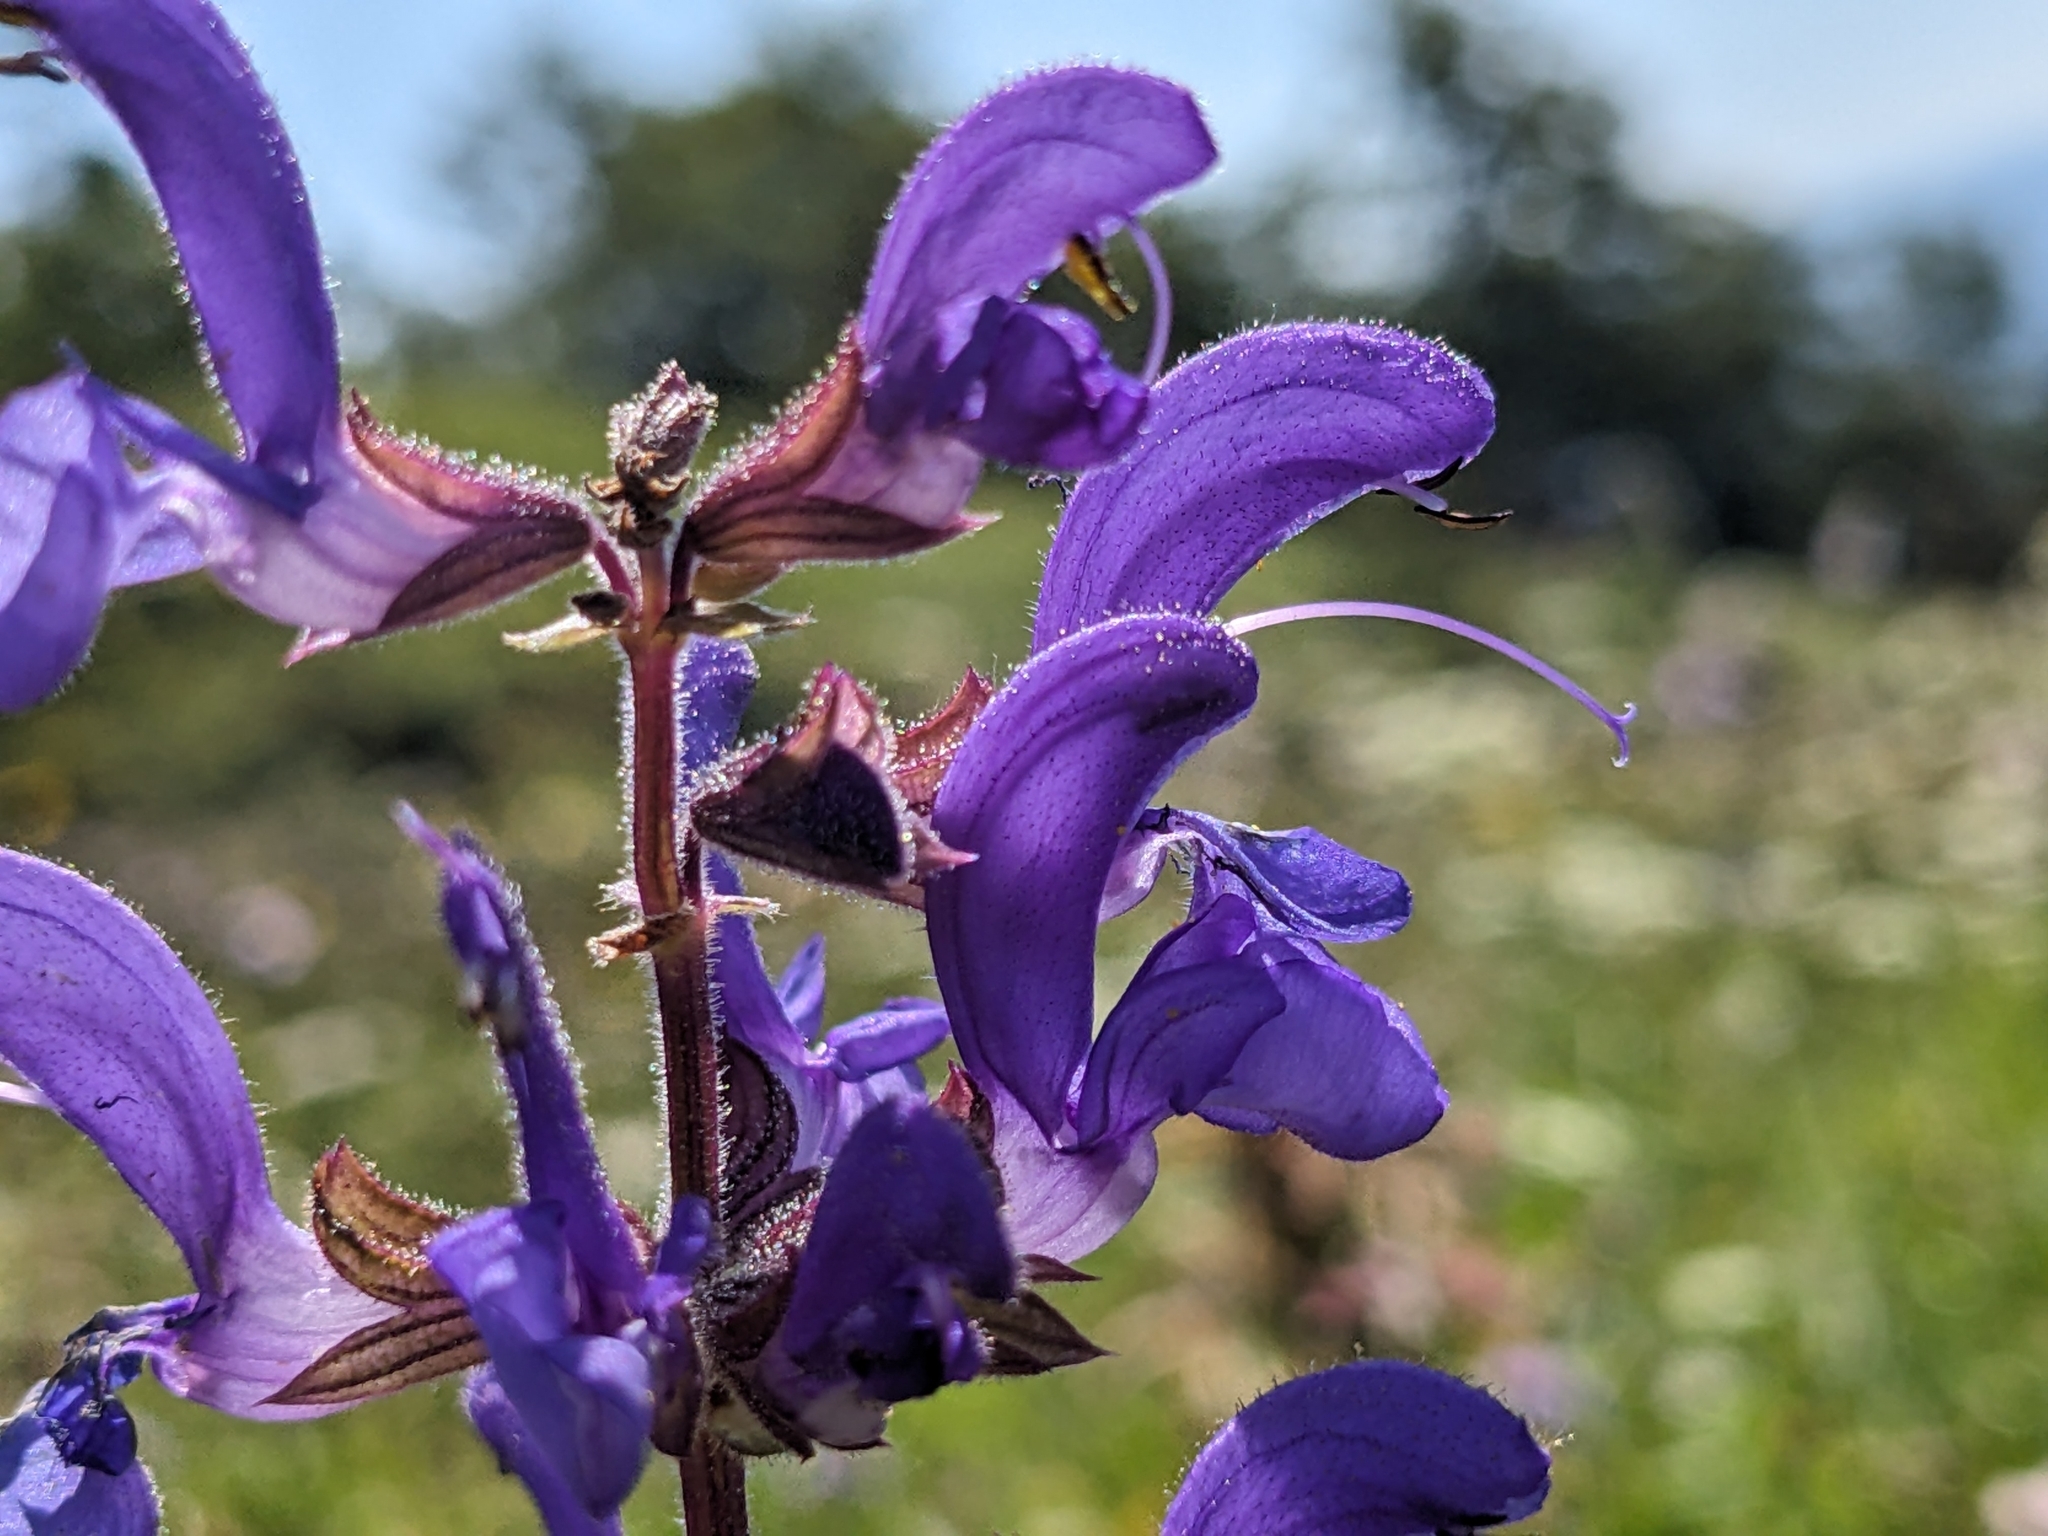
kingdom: Plantae
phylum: Tracheophyta
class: Magnoliopsida
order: Lamiales
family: Lamiaceae
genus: Salvia
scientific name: Salvia pratensis
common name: Meadow sage
